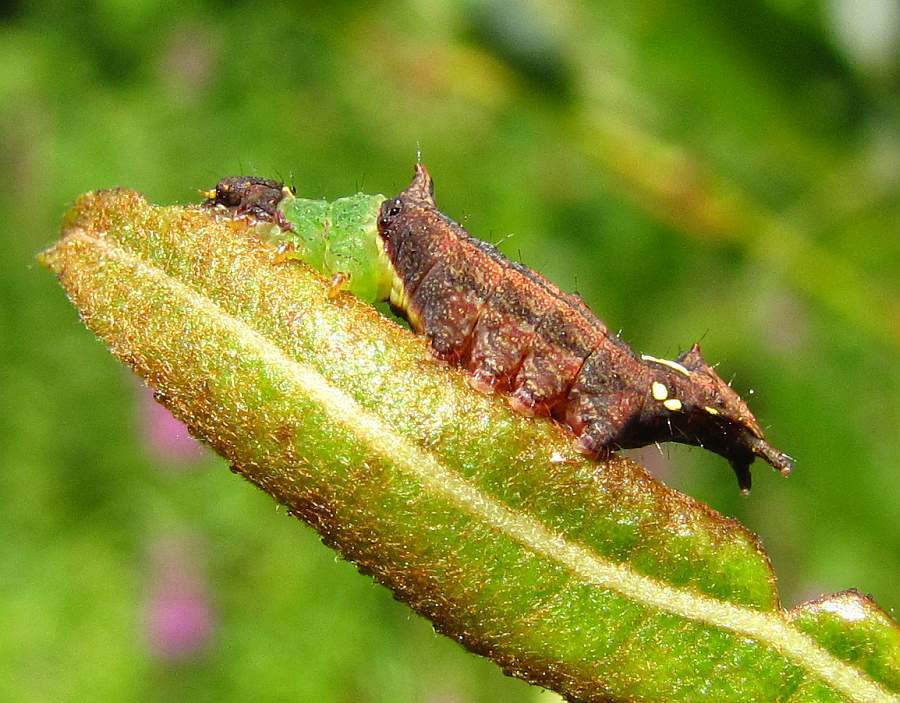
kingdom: Animalia
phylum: Arthropoda
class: Insecta
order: Lepidoptera
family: Notodontidae
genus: Schizura
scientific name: Schizura
